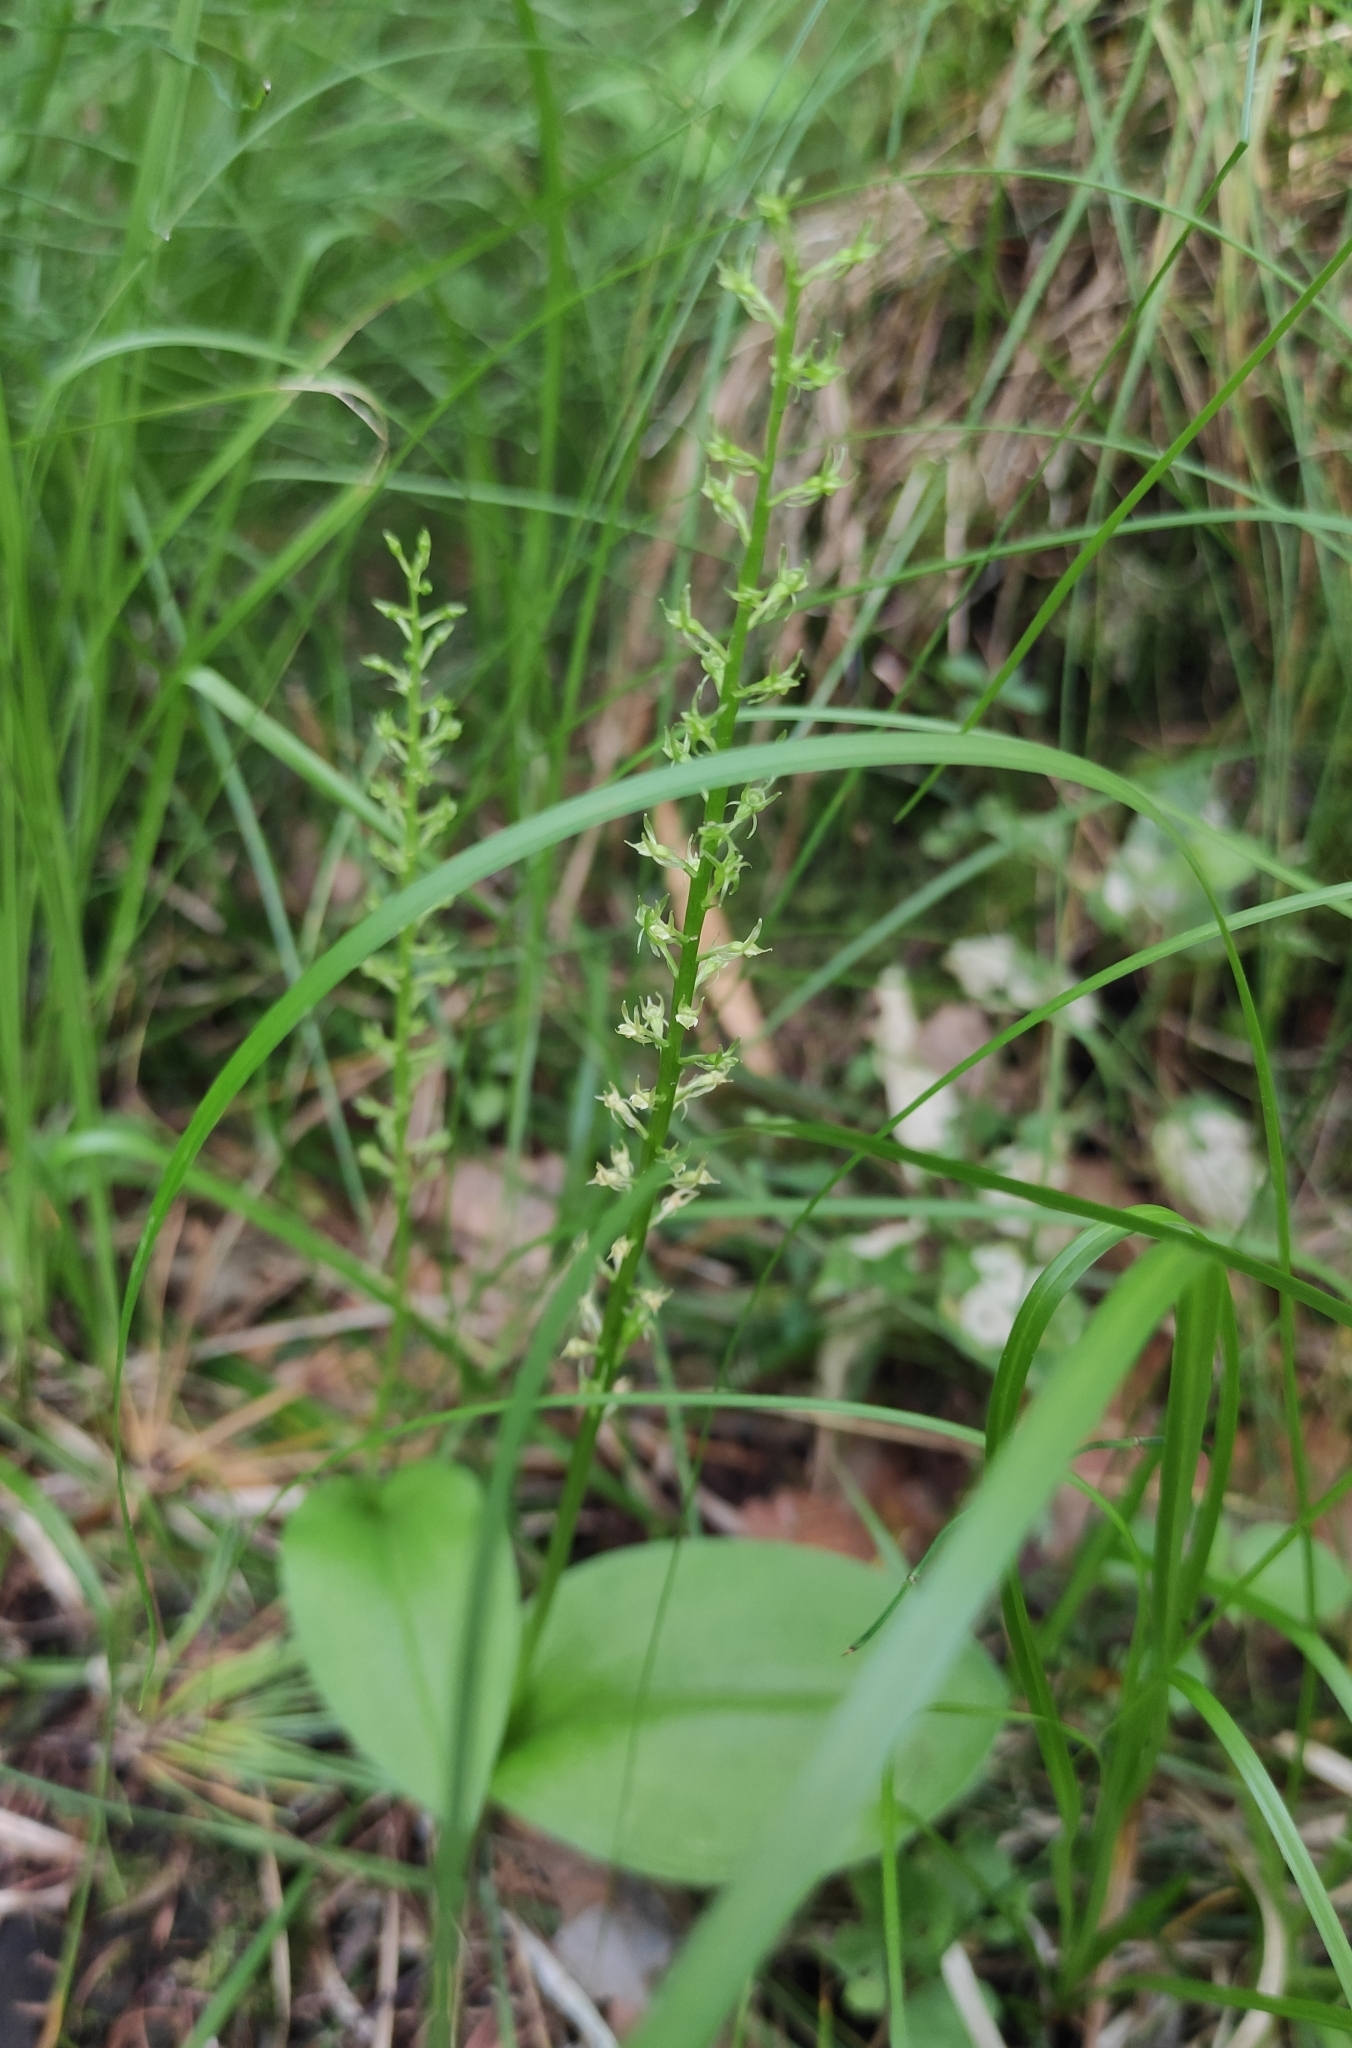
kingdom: Plantae
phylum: Tracheophyta
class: Liliopsida
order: Asparagales
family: Orchidaceae
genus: Malaxis
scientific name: Malaxis monophyllos
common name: White adder's-mouth
